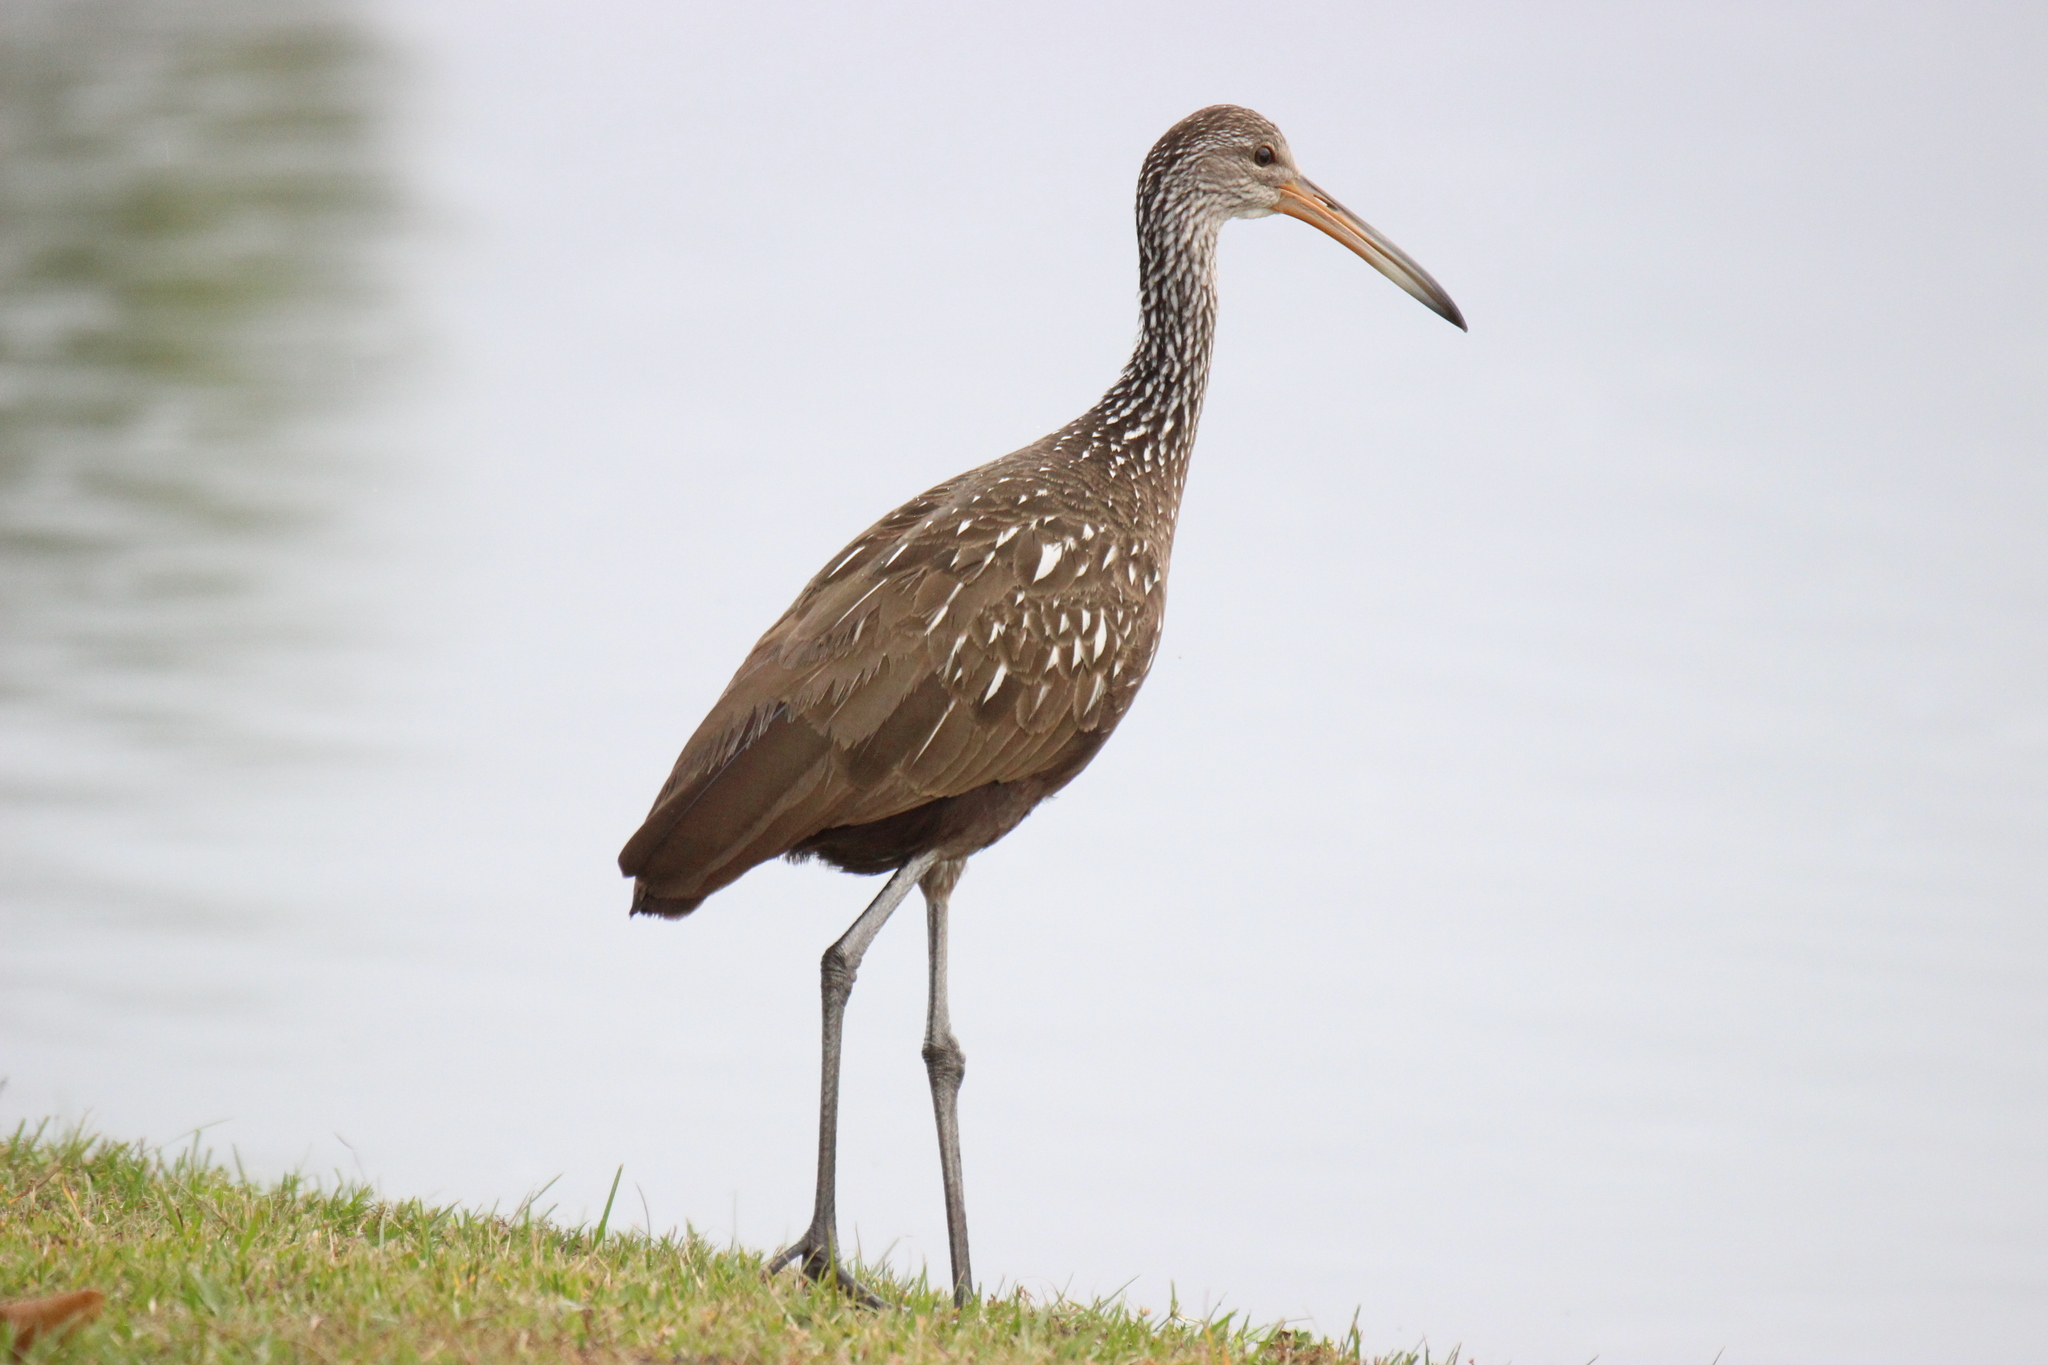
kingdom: Animalia
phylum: Chordata
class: Aves
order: Gruiformes
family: Aramidae
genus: Aramus
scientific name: Aramus guarauna
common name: Limpkin
